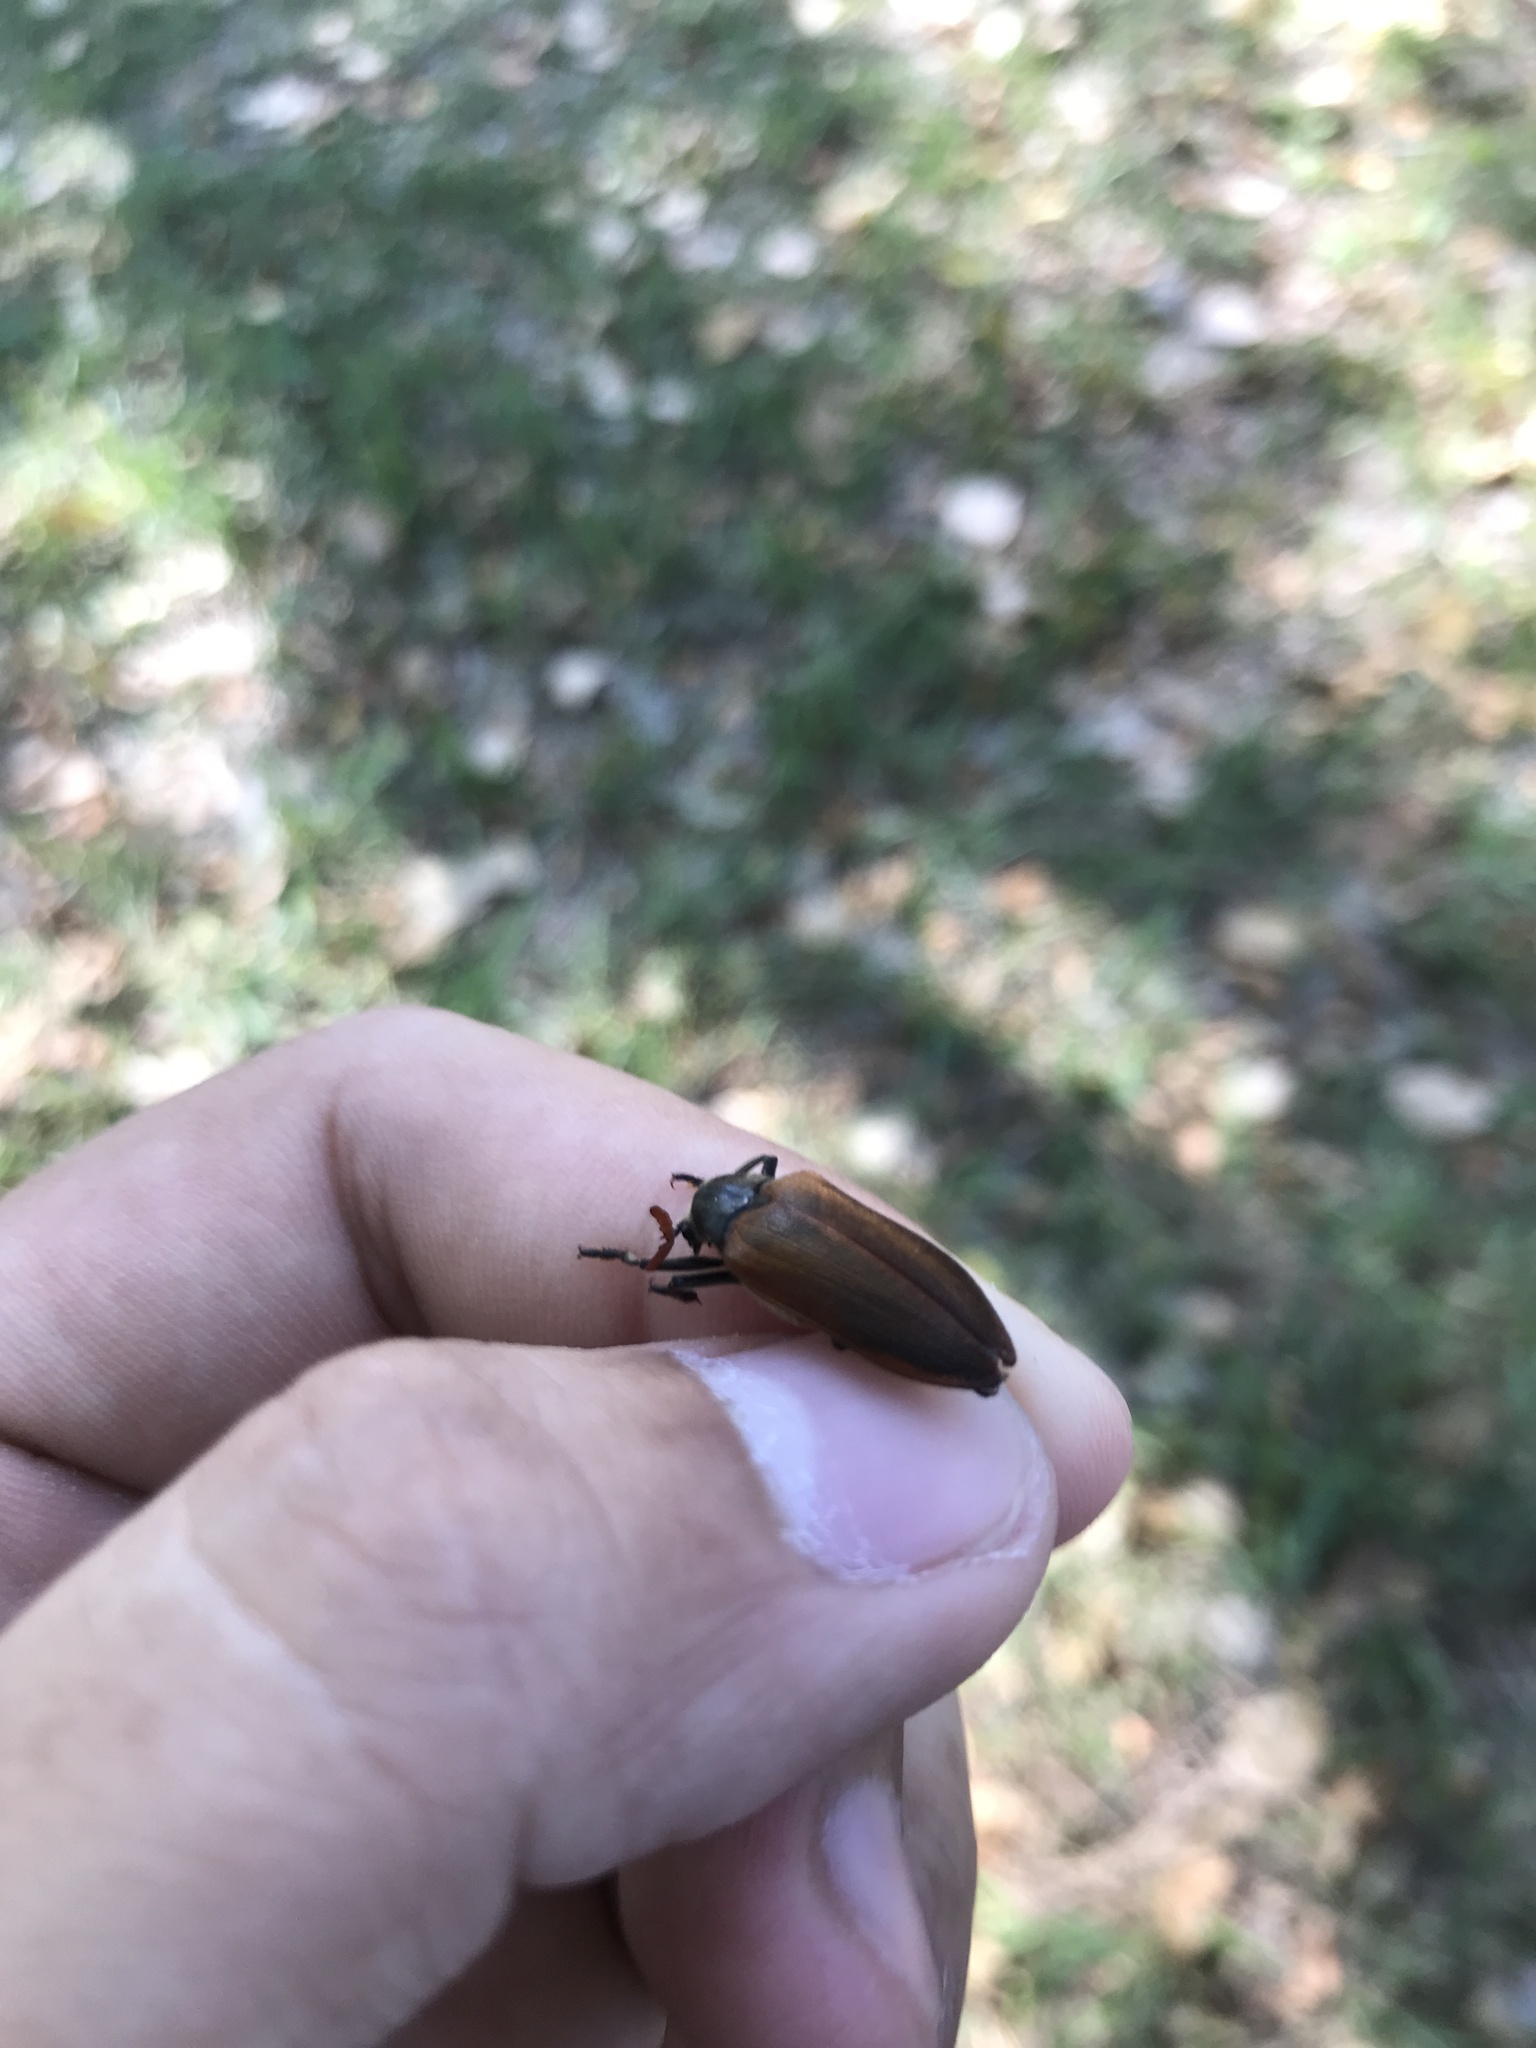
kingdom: Animalia
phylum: Arthropoda
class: Insecta
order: Coleoptera
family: Rhipiceridae
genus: Sandalus
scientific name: Sandalus niger
